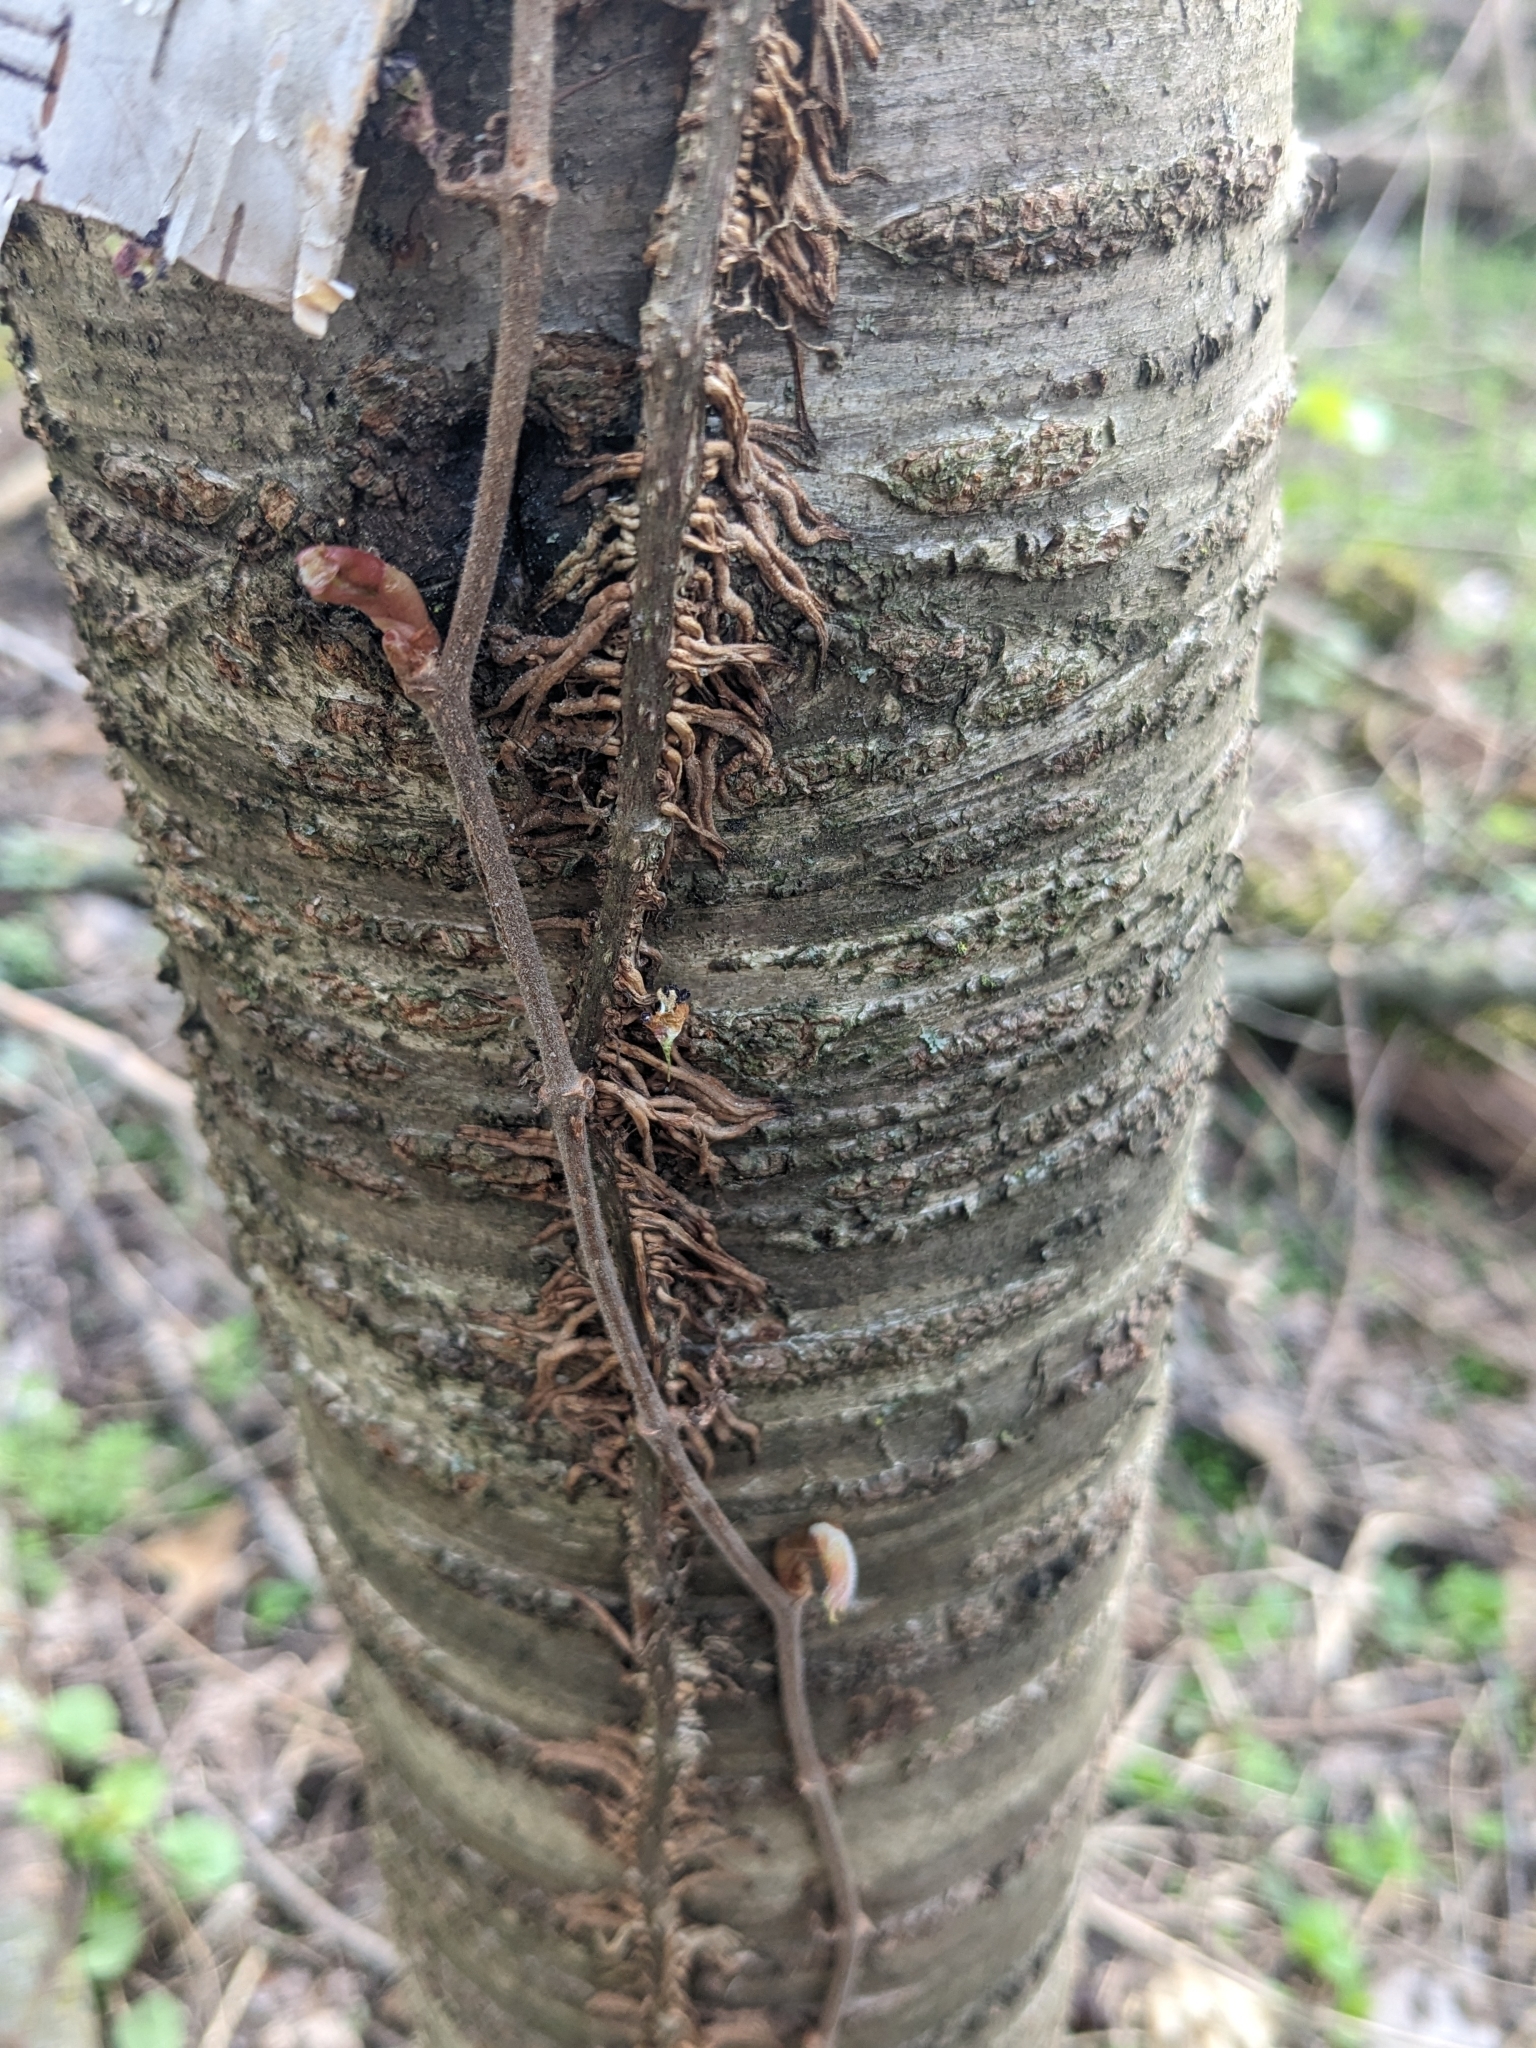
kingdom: Plantae
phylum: Tracheophyta
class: Magnoliopsida
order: Sapindales
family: Anacardiaceae
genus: Toxicodendron
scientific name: Toxicodendron radicans
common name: Poison ivy
